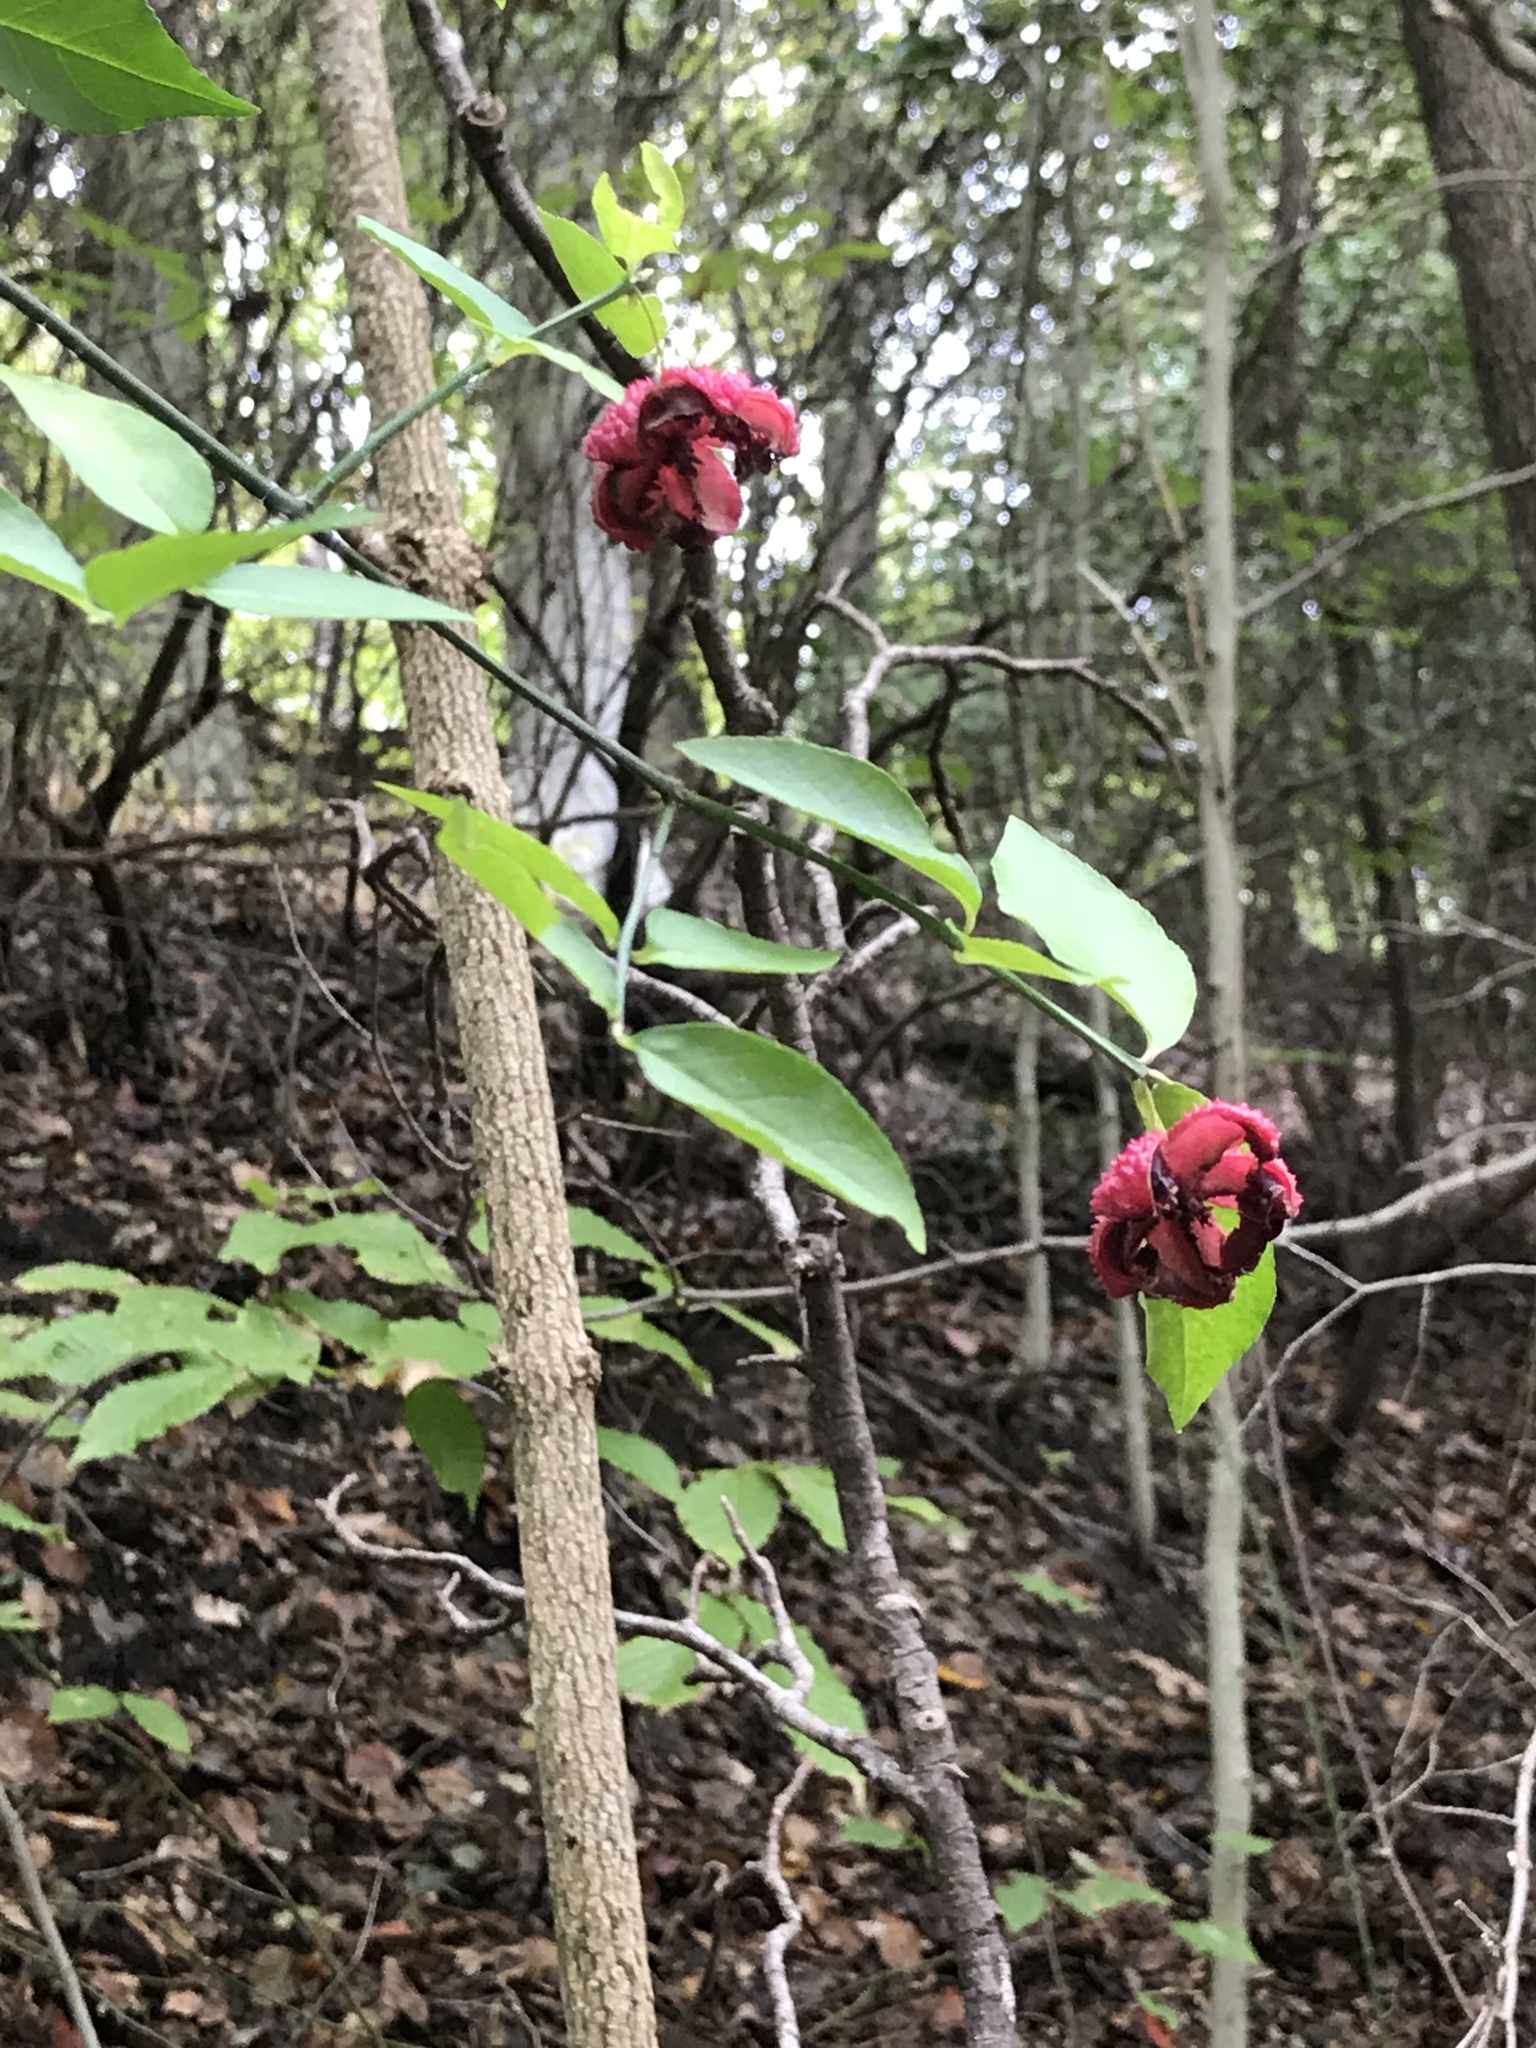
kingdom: Plantae
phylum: Tracheophyta
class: Magnoliopsida
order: Celastrales
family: Celastraceae
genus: Euonymus
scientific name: Euonymus americanus
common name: Bursting-heart
